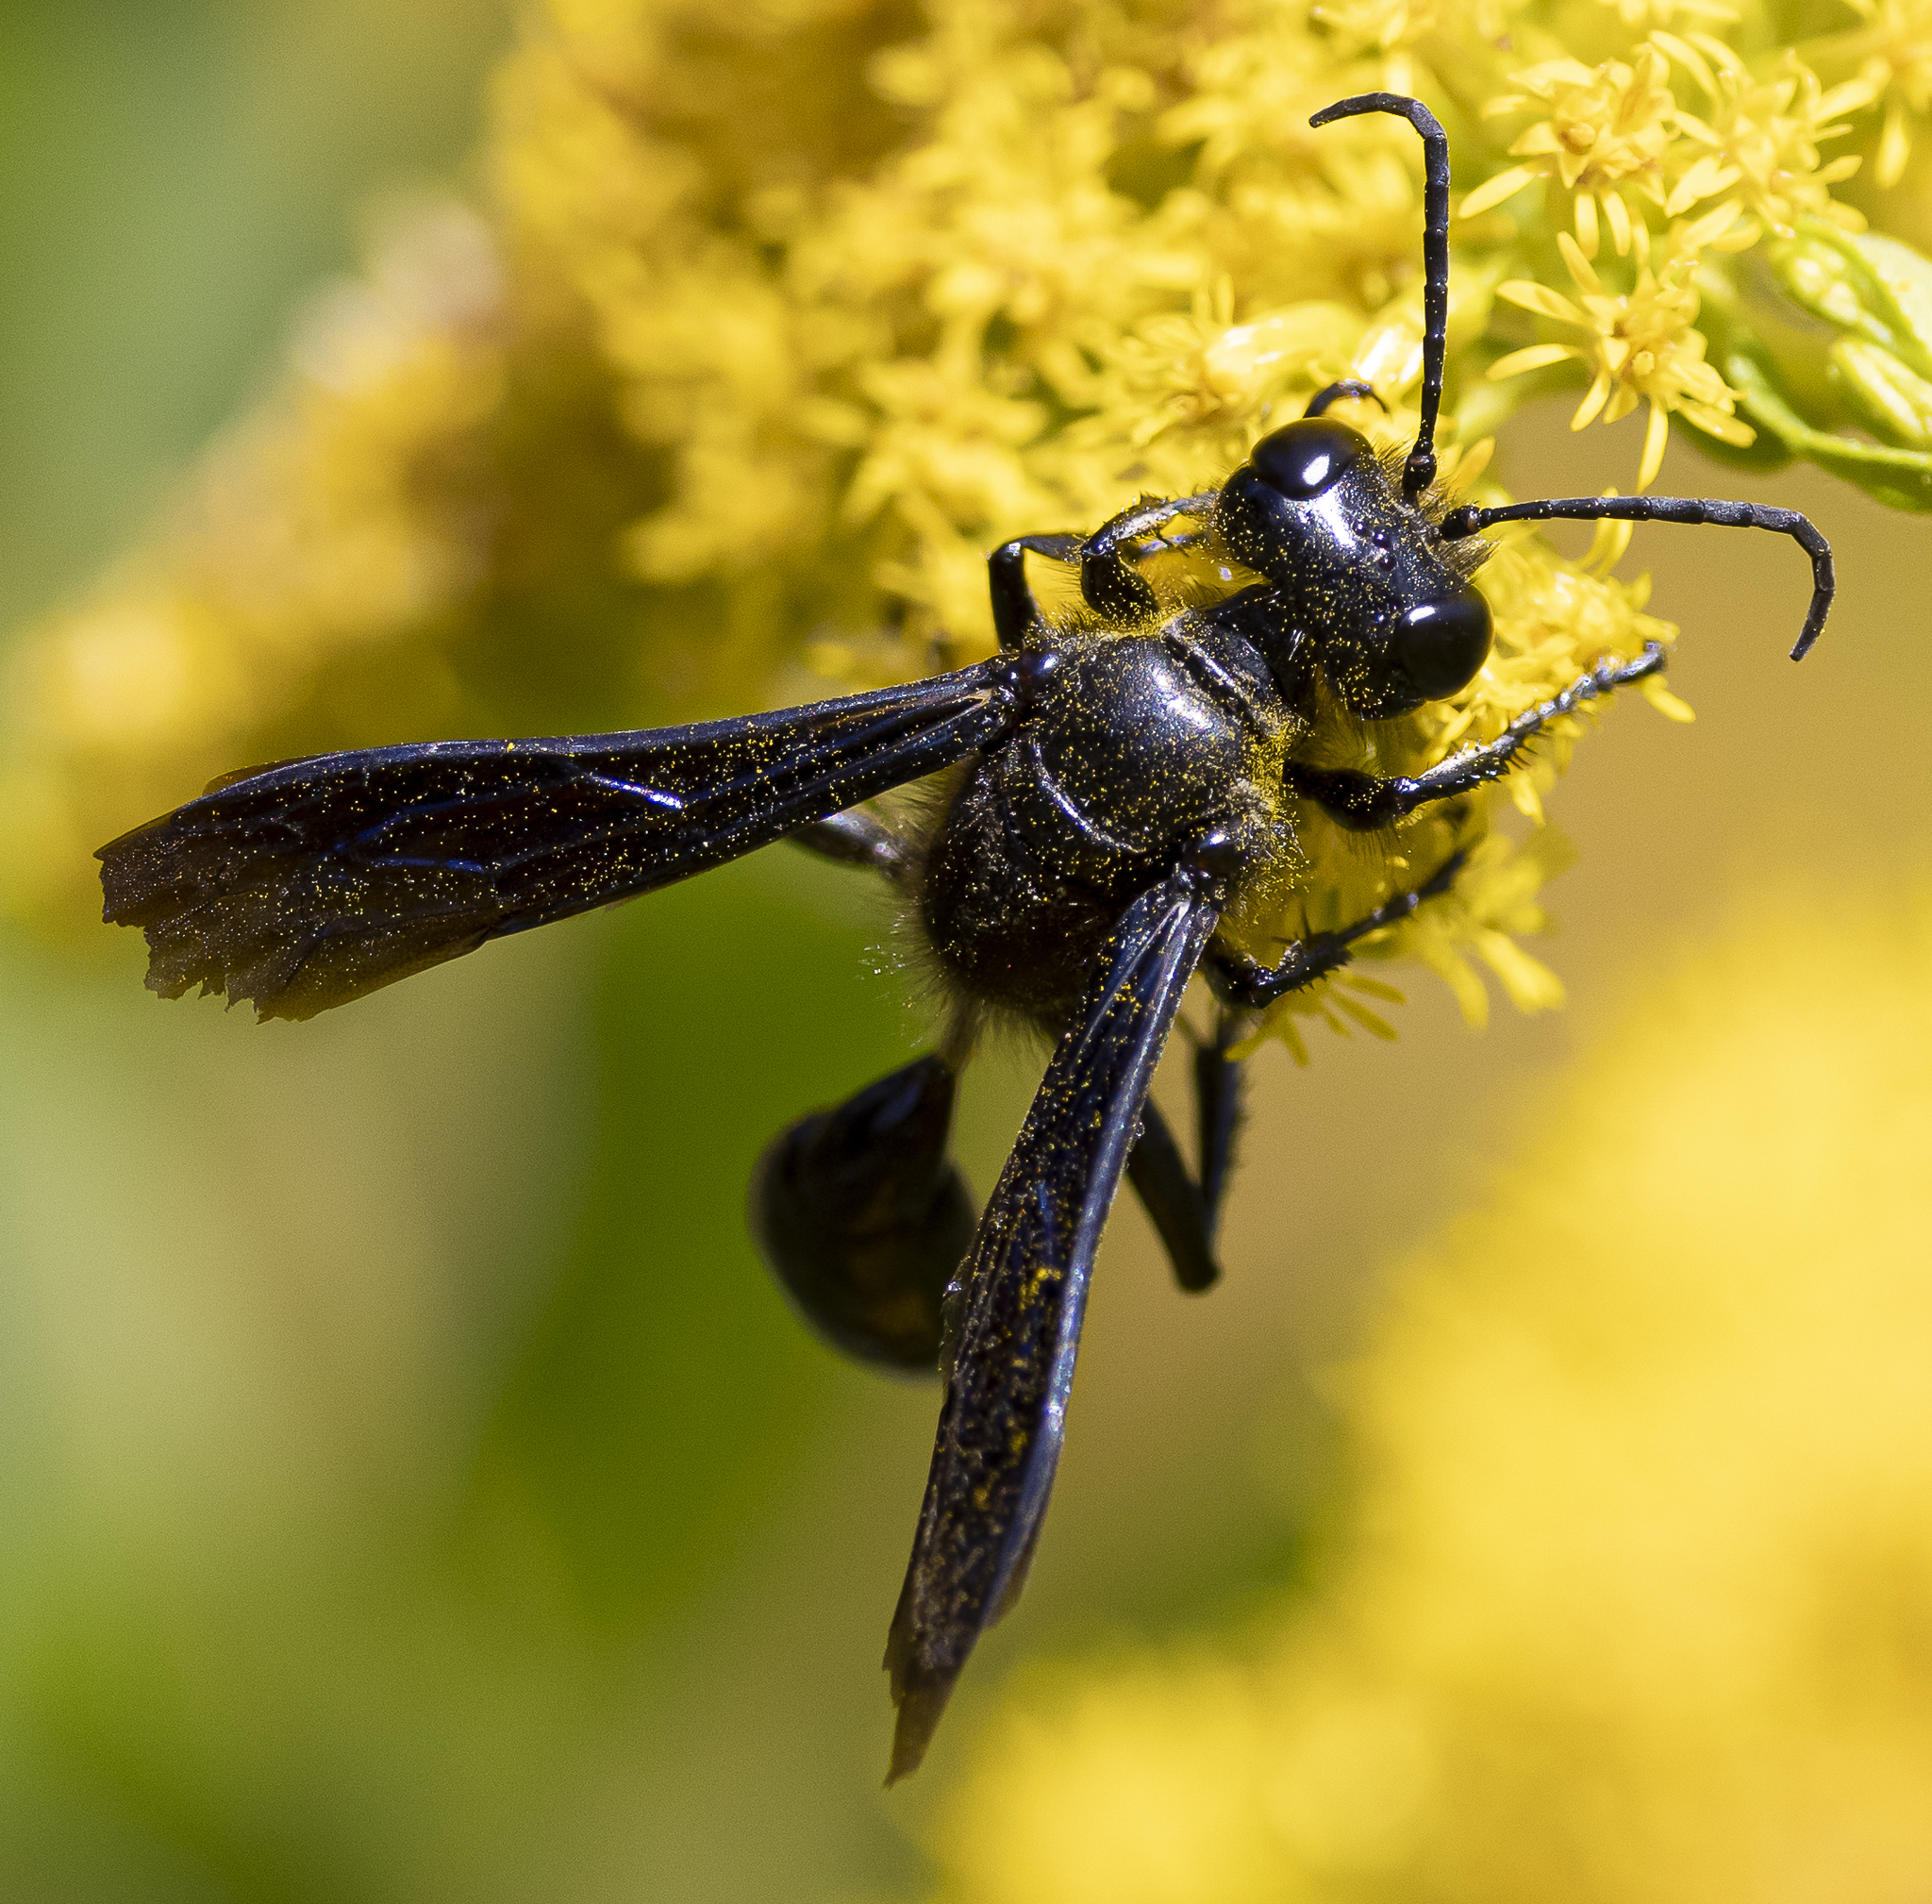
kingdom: Animalia
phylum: Arthropoda
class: Insecta
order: Hymenoptera
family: Sphecidae
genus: Isodontia
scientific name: Isodontia philadelphica
